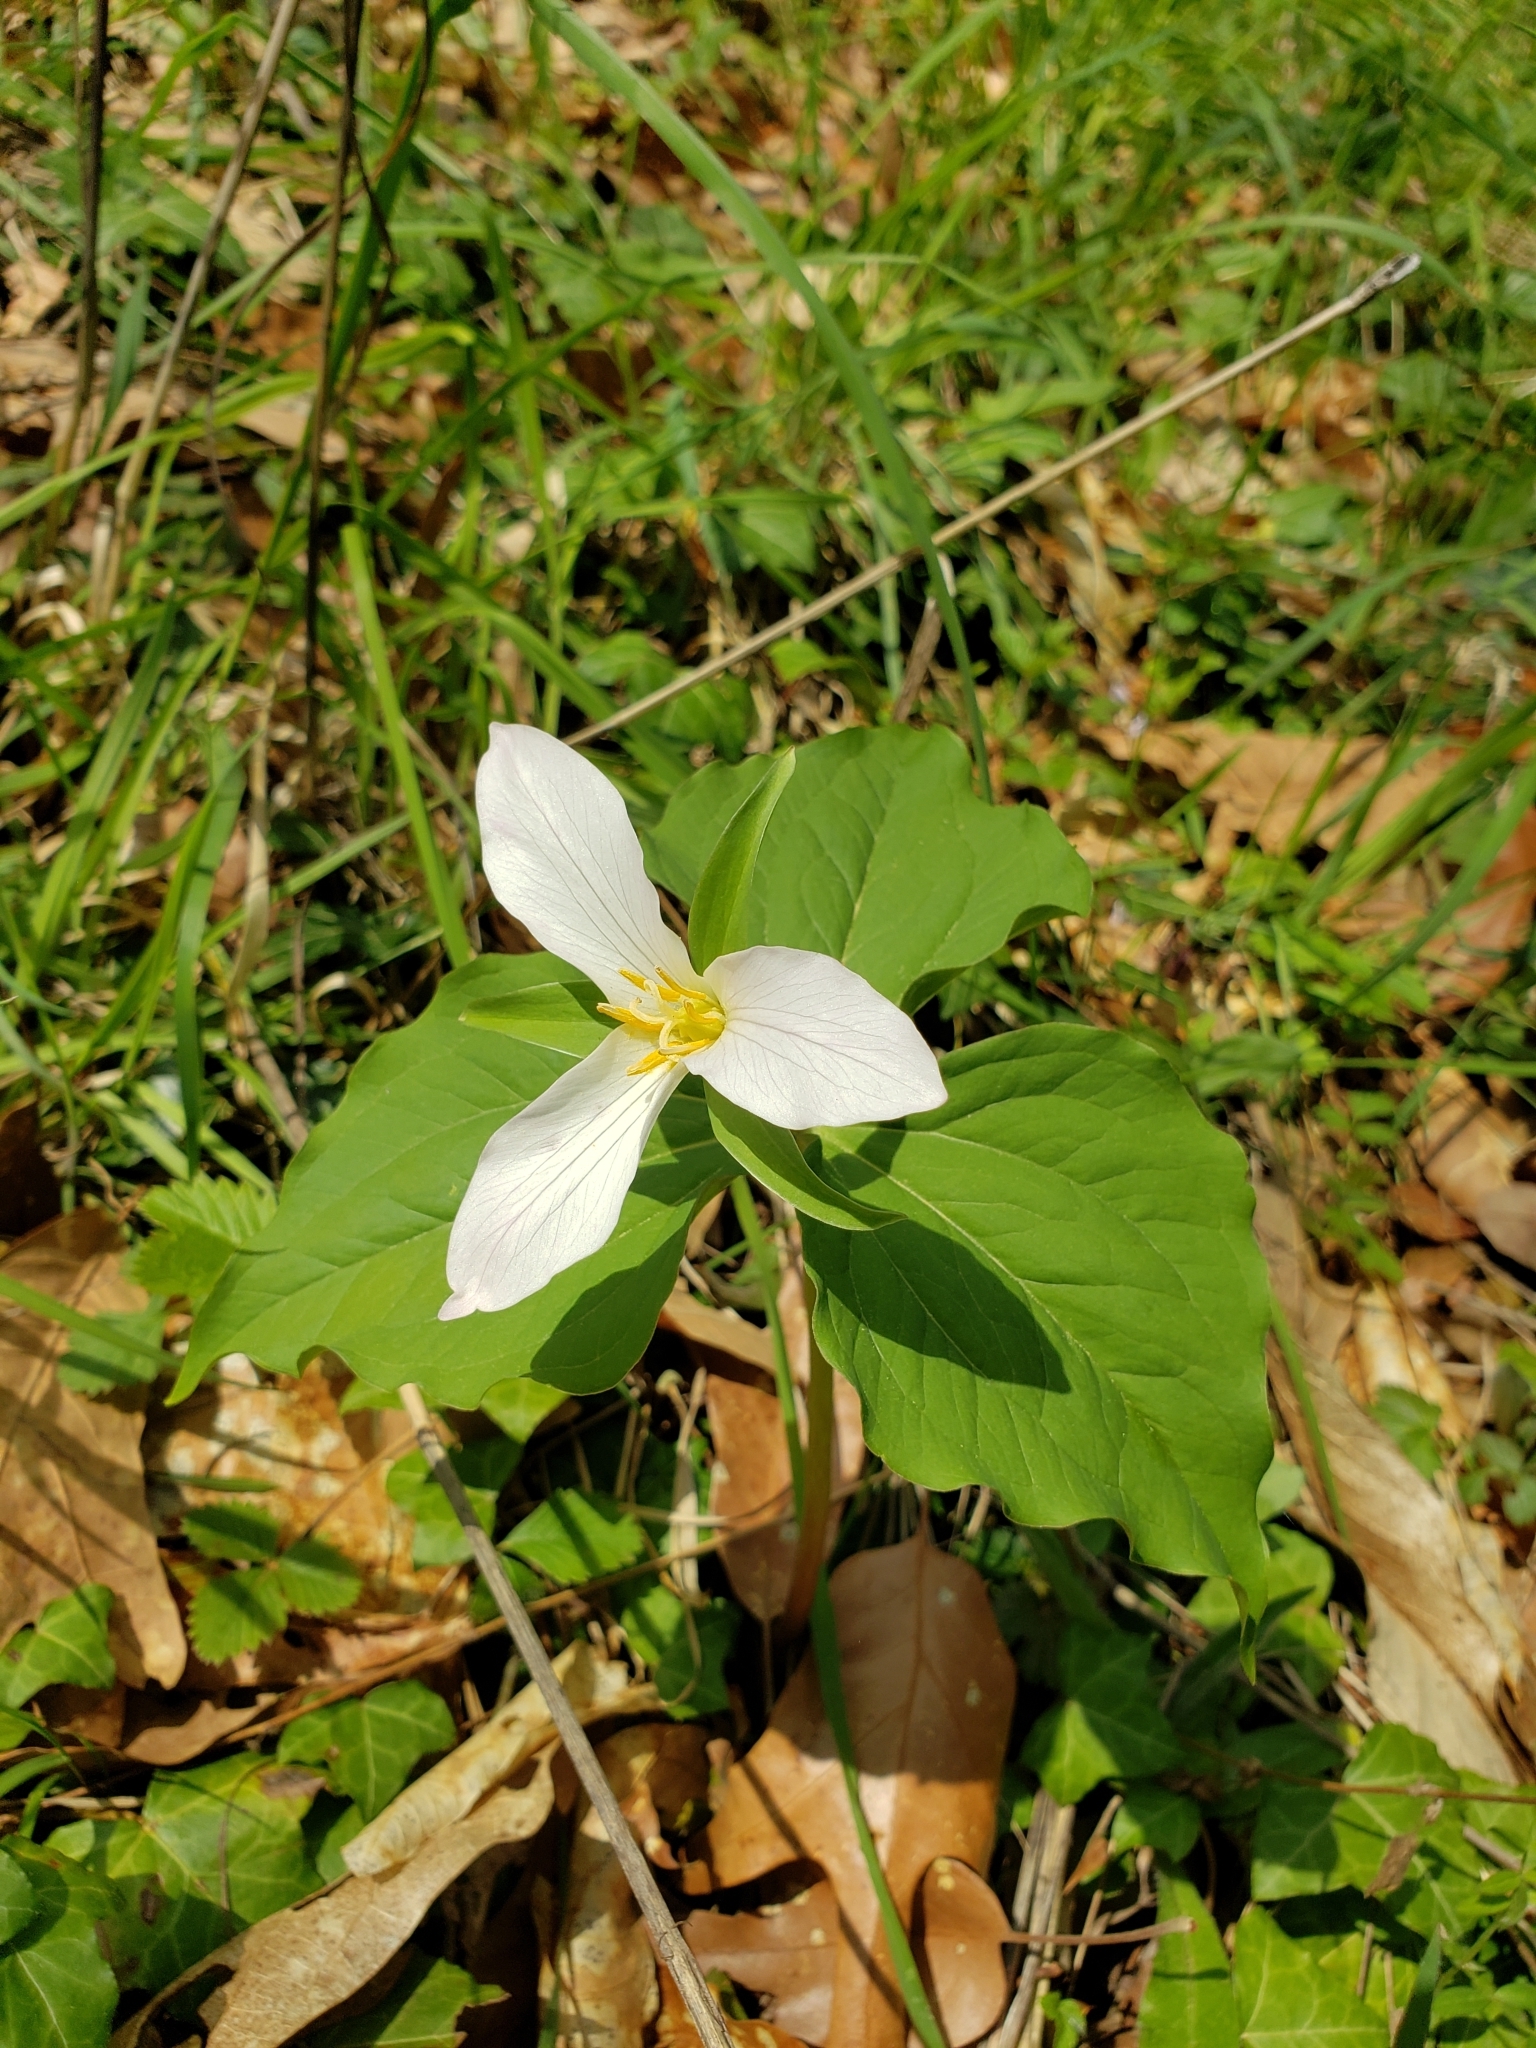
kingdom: Plantae
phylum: Tracheophyta
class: Liliopsida
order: Liliales
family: Melanthiaceae
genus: Trillium
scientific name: Trillium ovatum
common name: Pacific trillium
